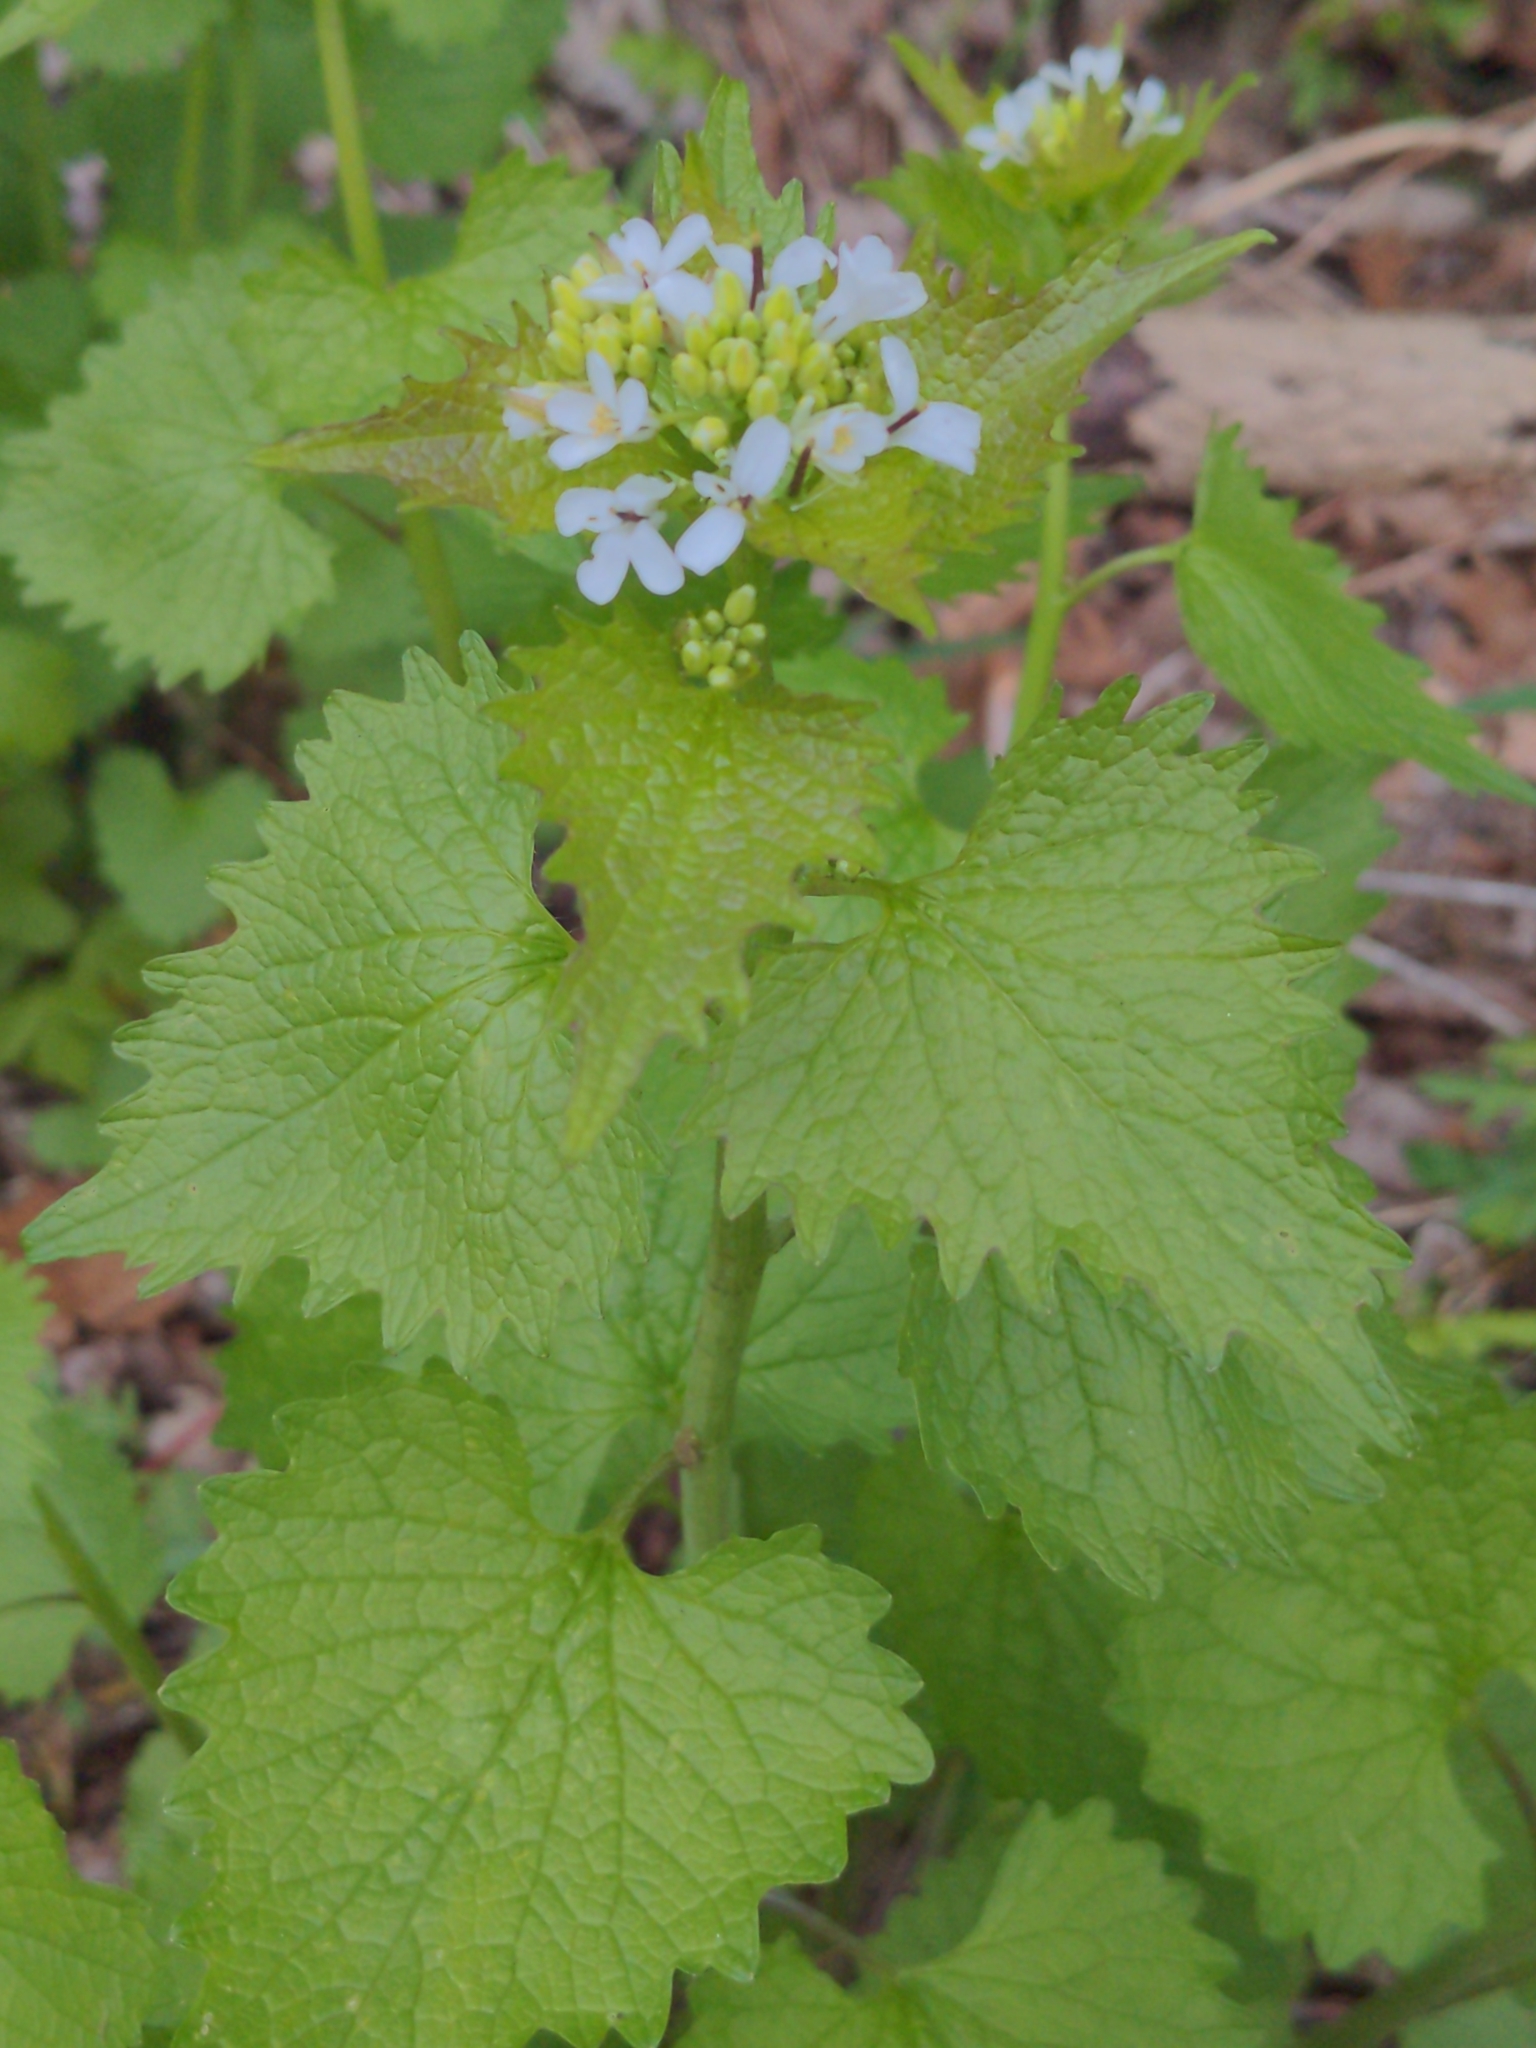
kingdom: Plantae
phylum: Tracheophyta
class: Magnoliopsida
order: Brassicales
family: Brassicaceae
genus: Alliaria
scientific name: Alliaria petiolata
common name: Garlic mustard
